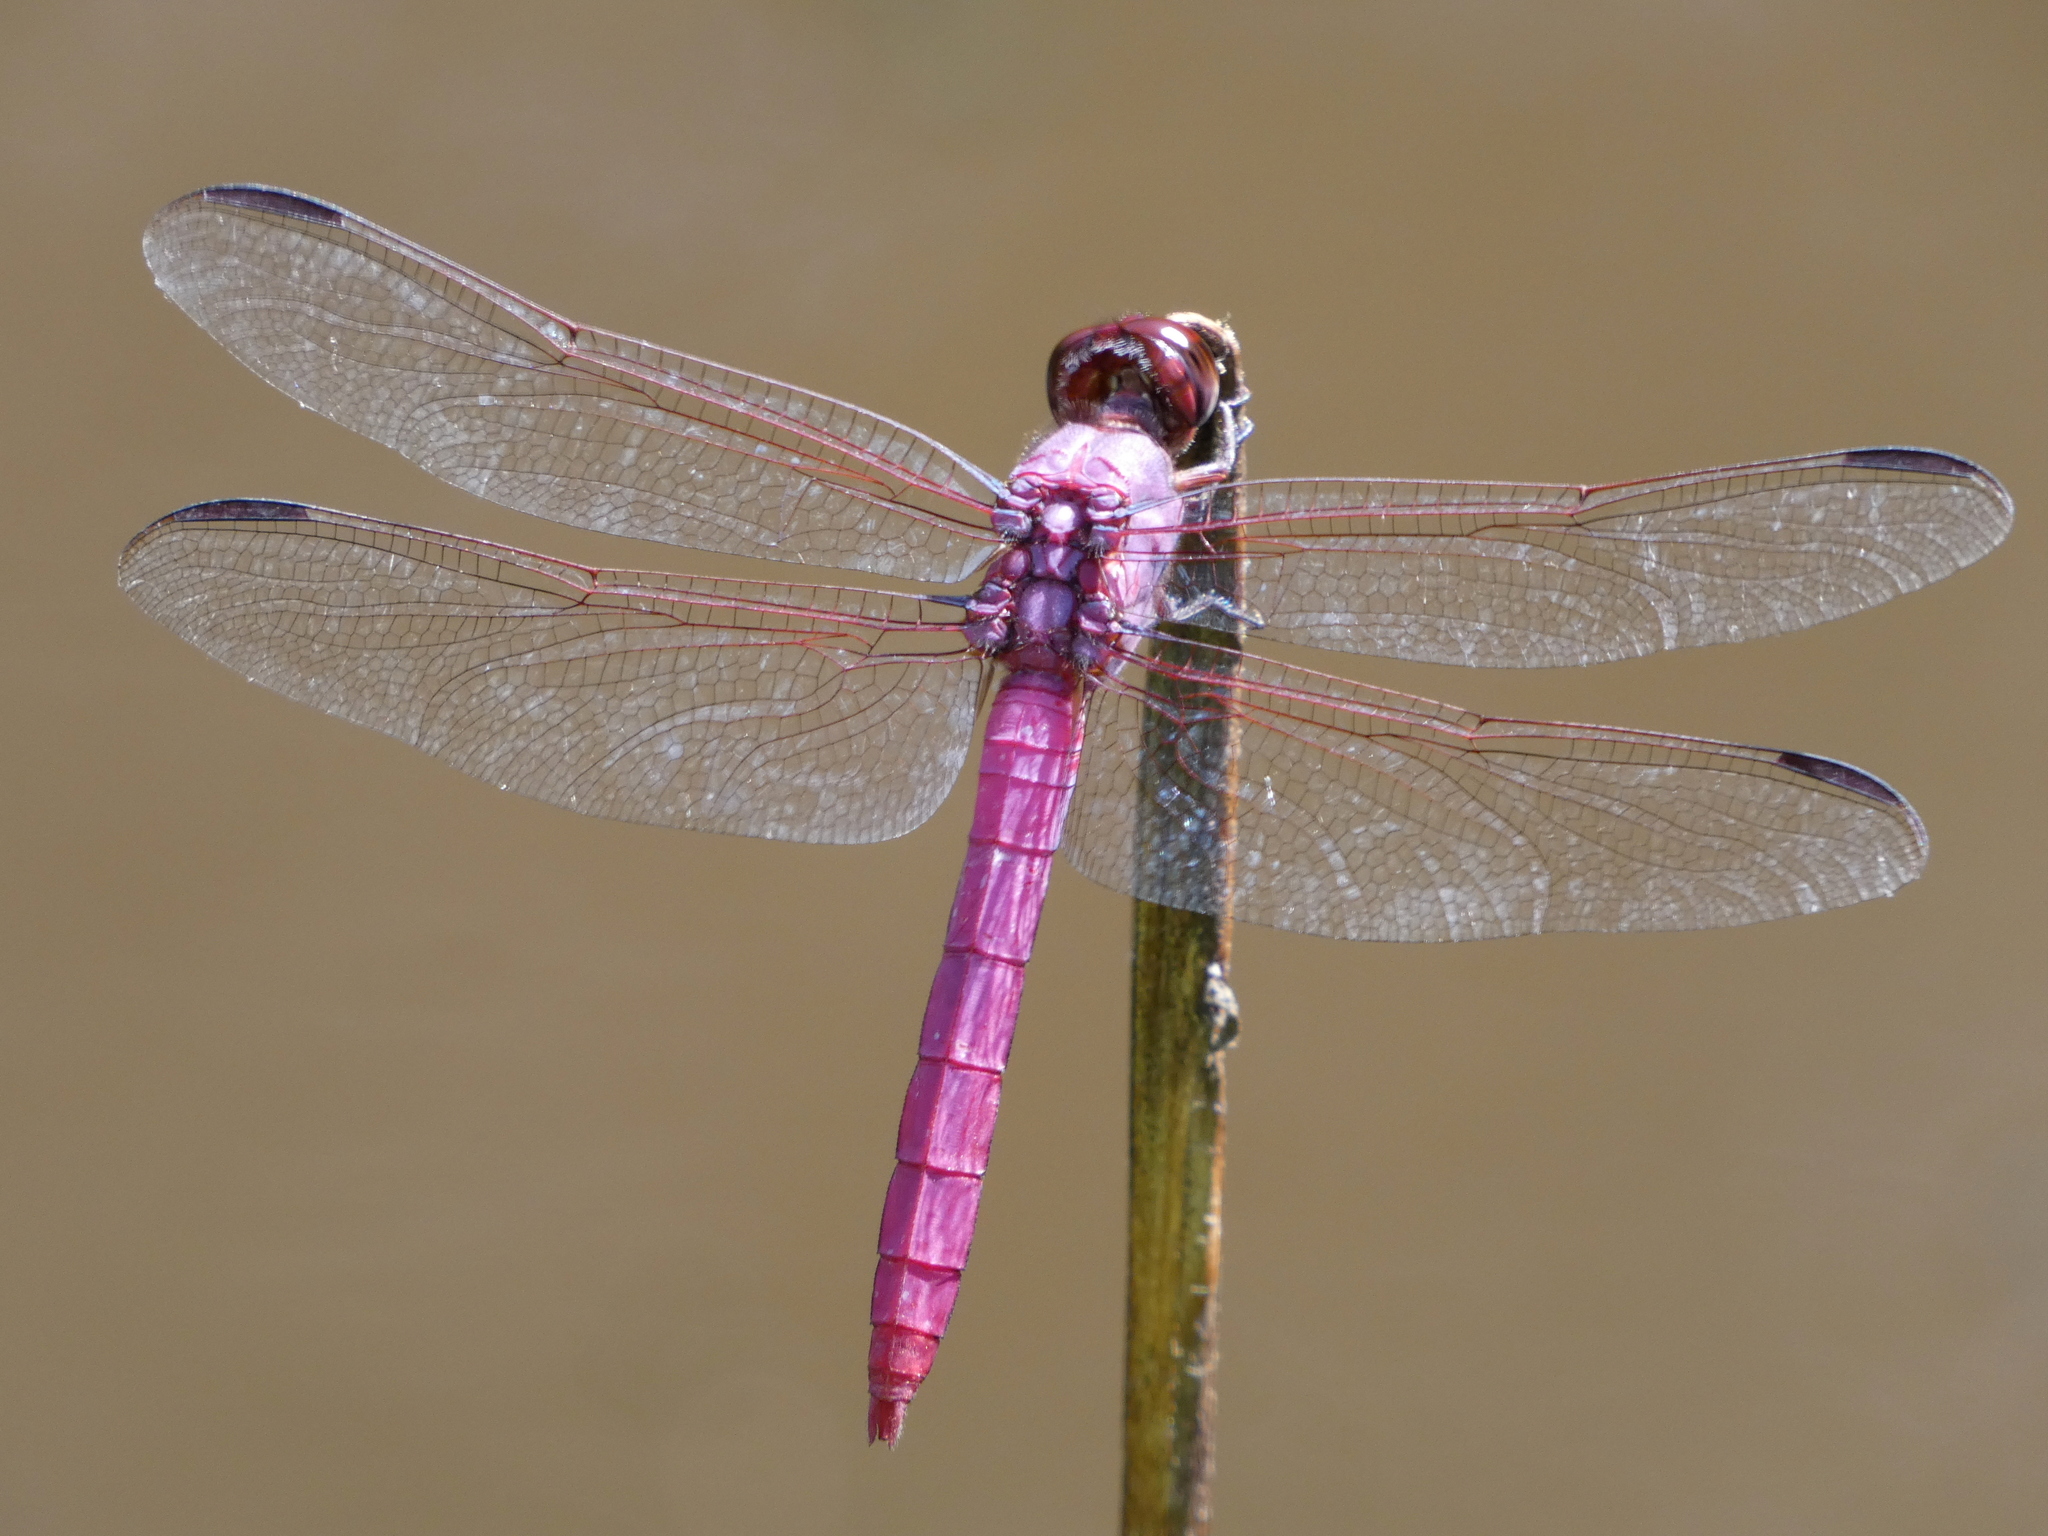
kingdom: Animalia
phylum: Arthropoda
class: Insecta
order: Odonata
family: Libellulidae
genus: Orthemis
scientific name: Orthemis ferruginea
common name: Roseate skimmer
